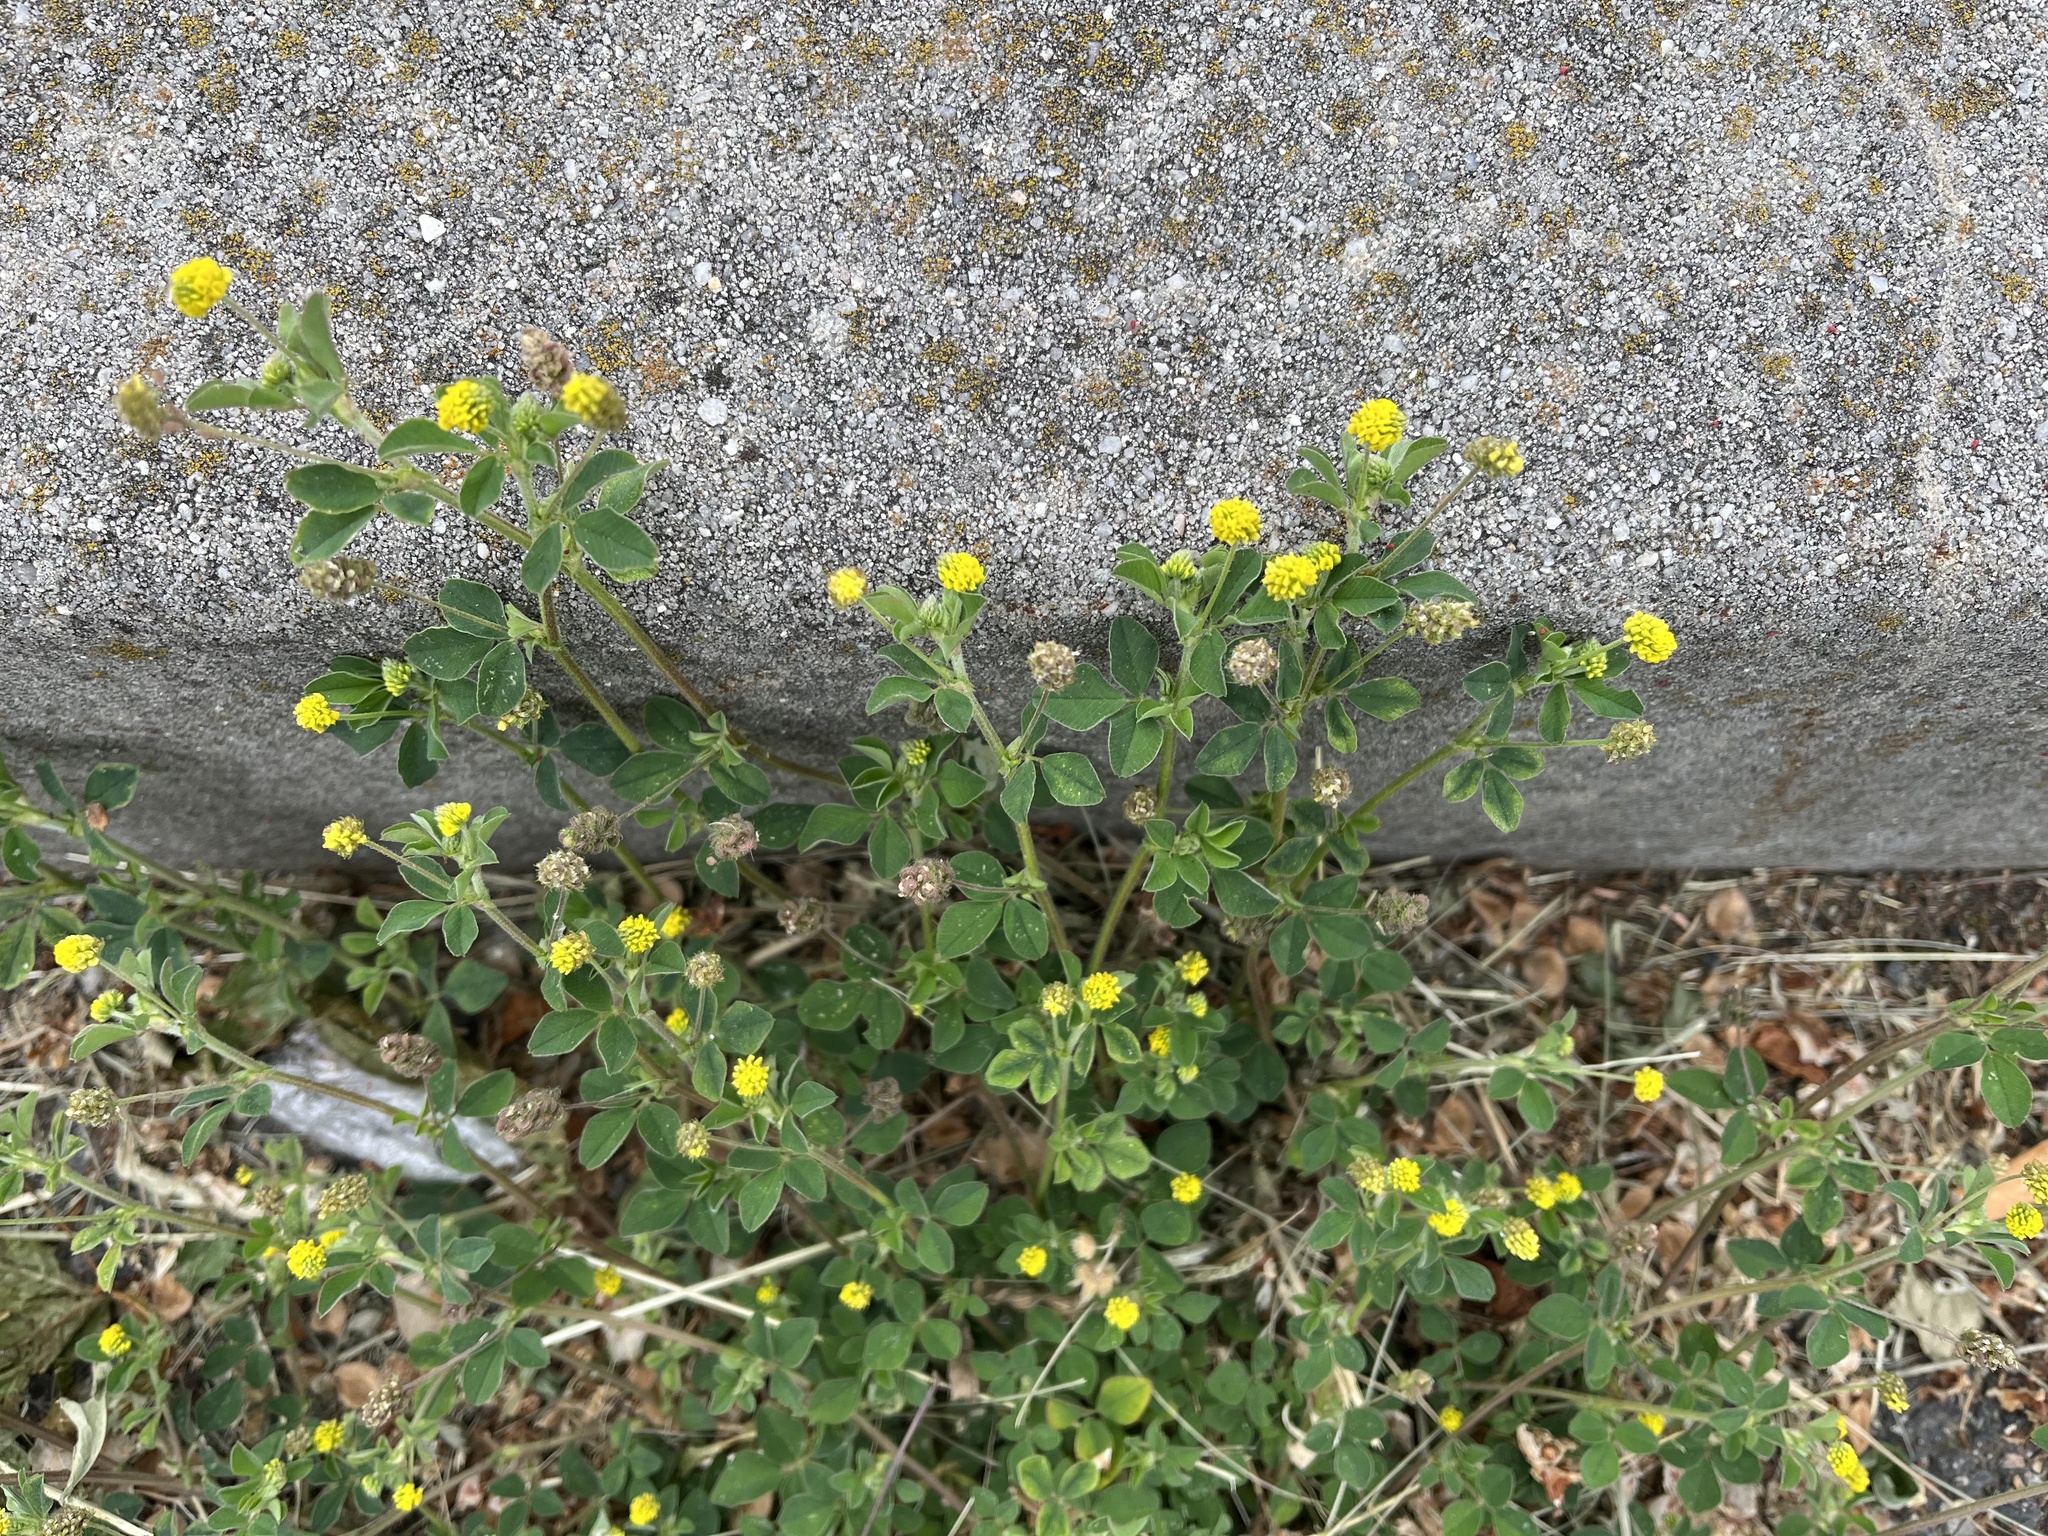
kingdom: Plantae
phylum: Tracheophyta
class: Magnoliopsida
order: Fabales
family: Fabaceae
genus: Medicago
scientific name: Medicago lupulina
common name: Black medick
